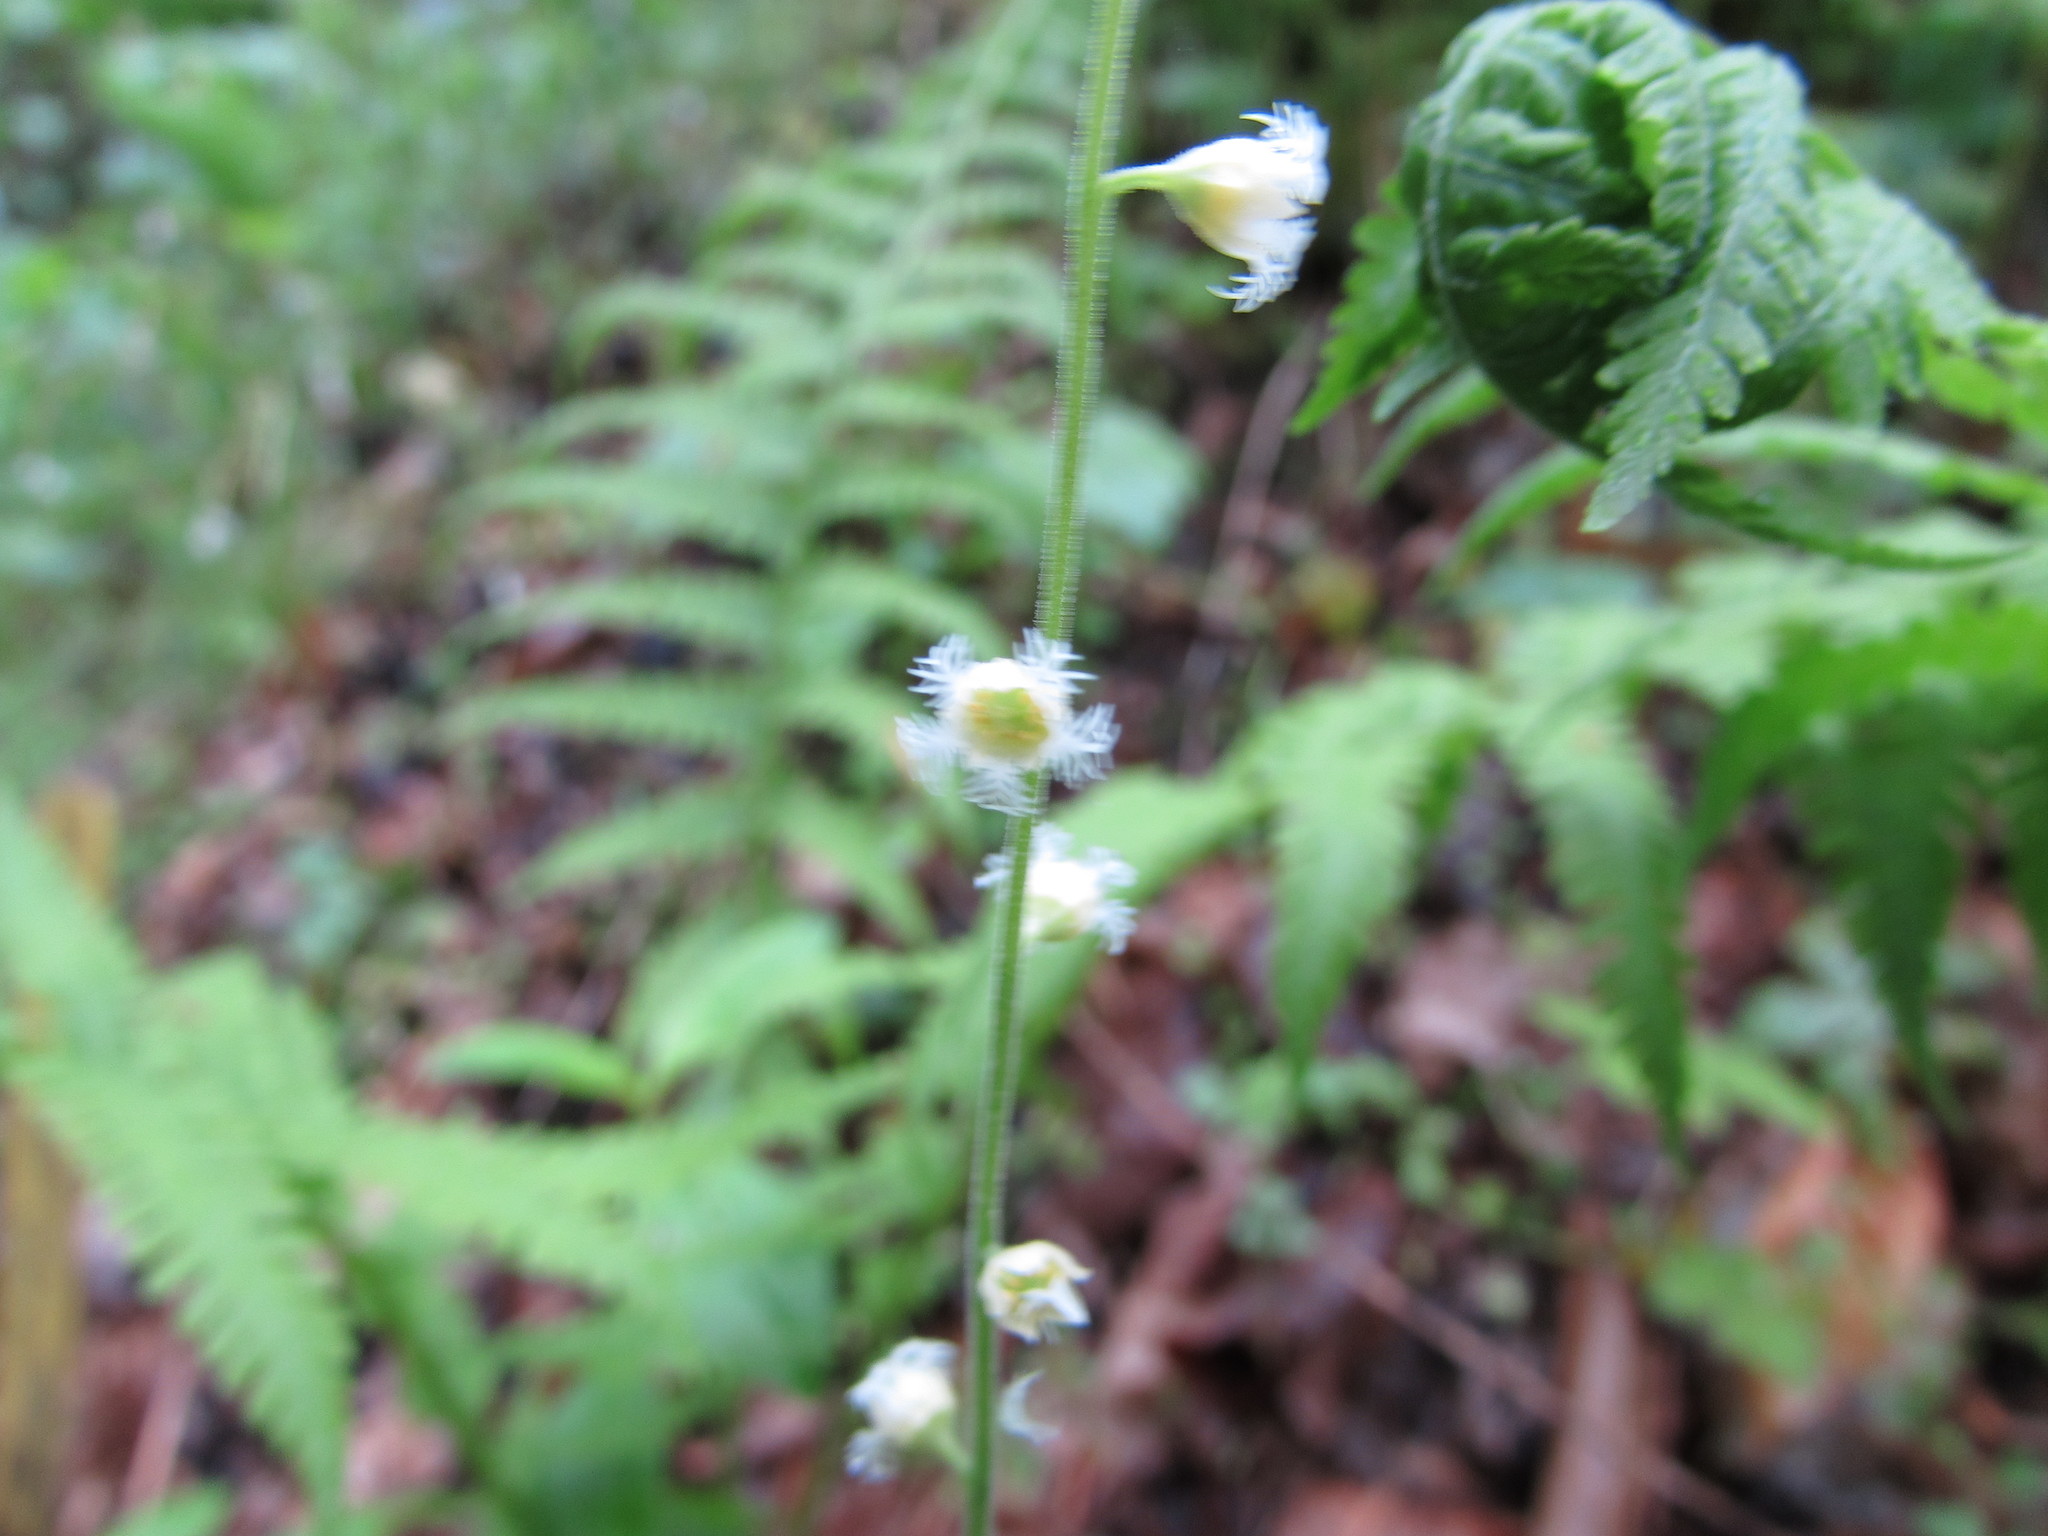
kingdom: Plantae
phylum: Tracheophyta
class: Magnoliopsida
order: Saxifragales
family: Saxifragaceae
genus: Mitella
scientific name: Mitella diphylla
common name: Coolwort
